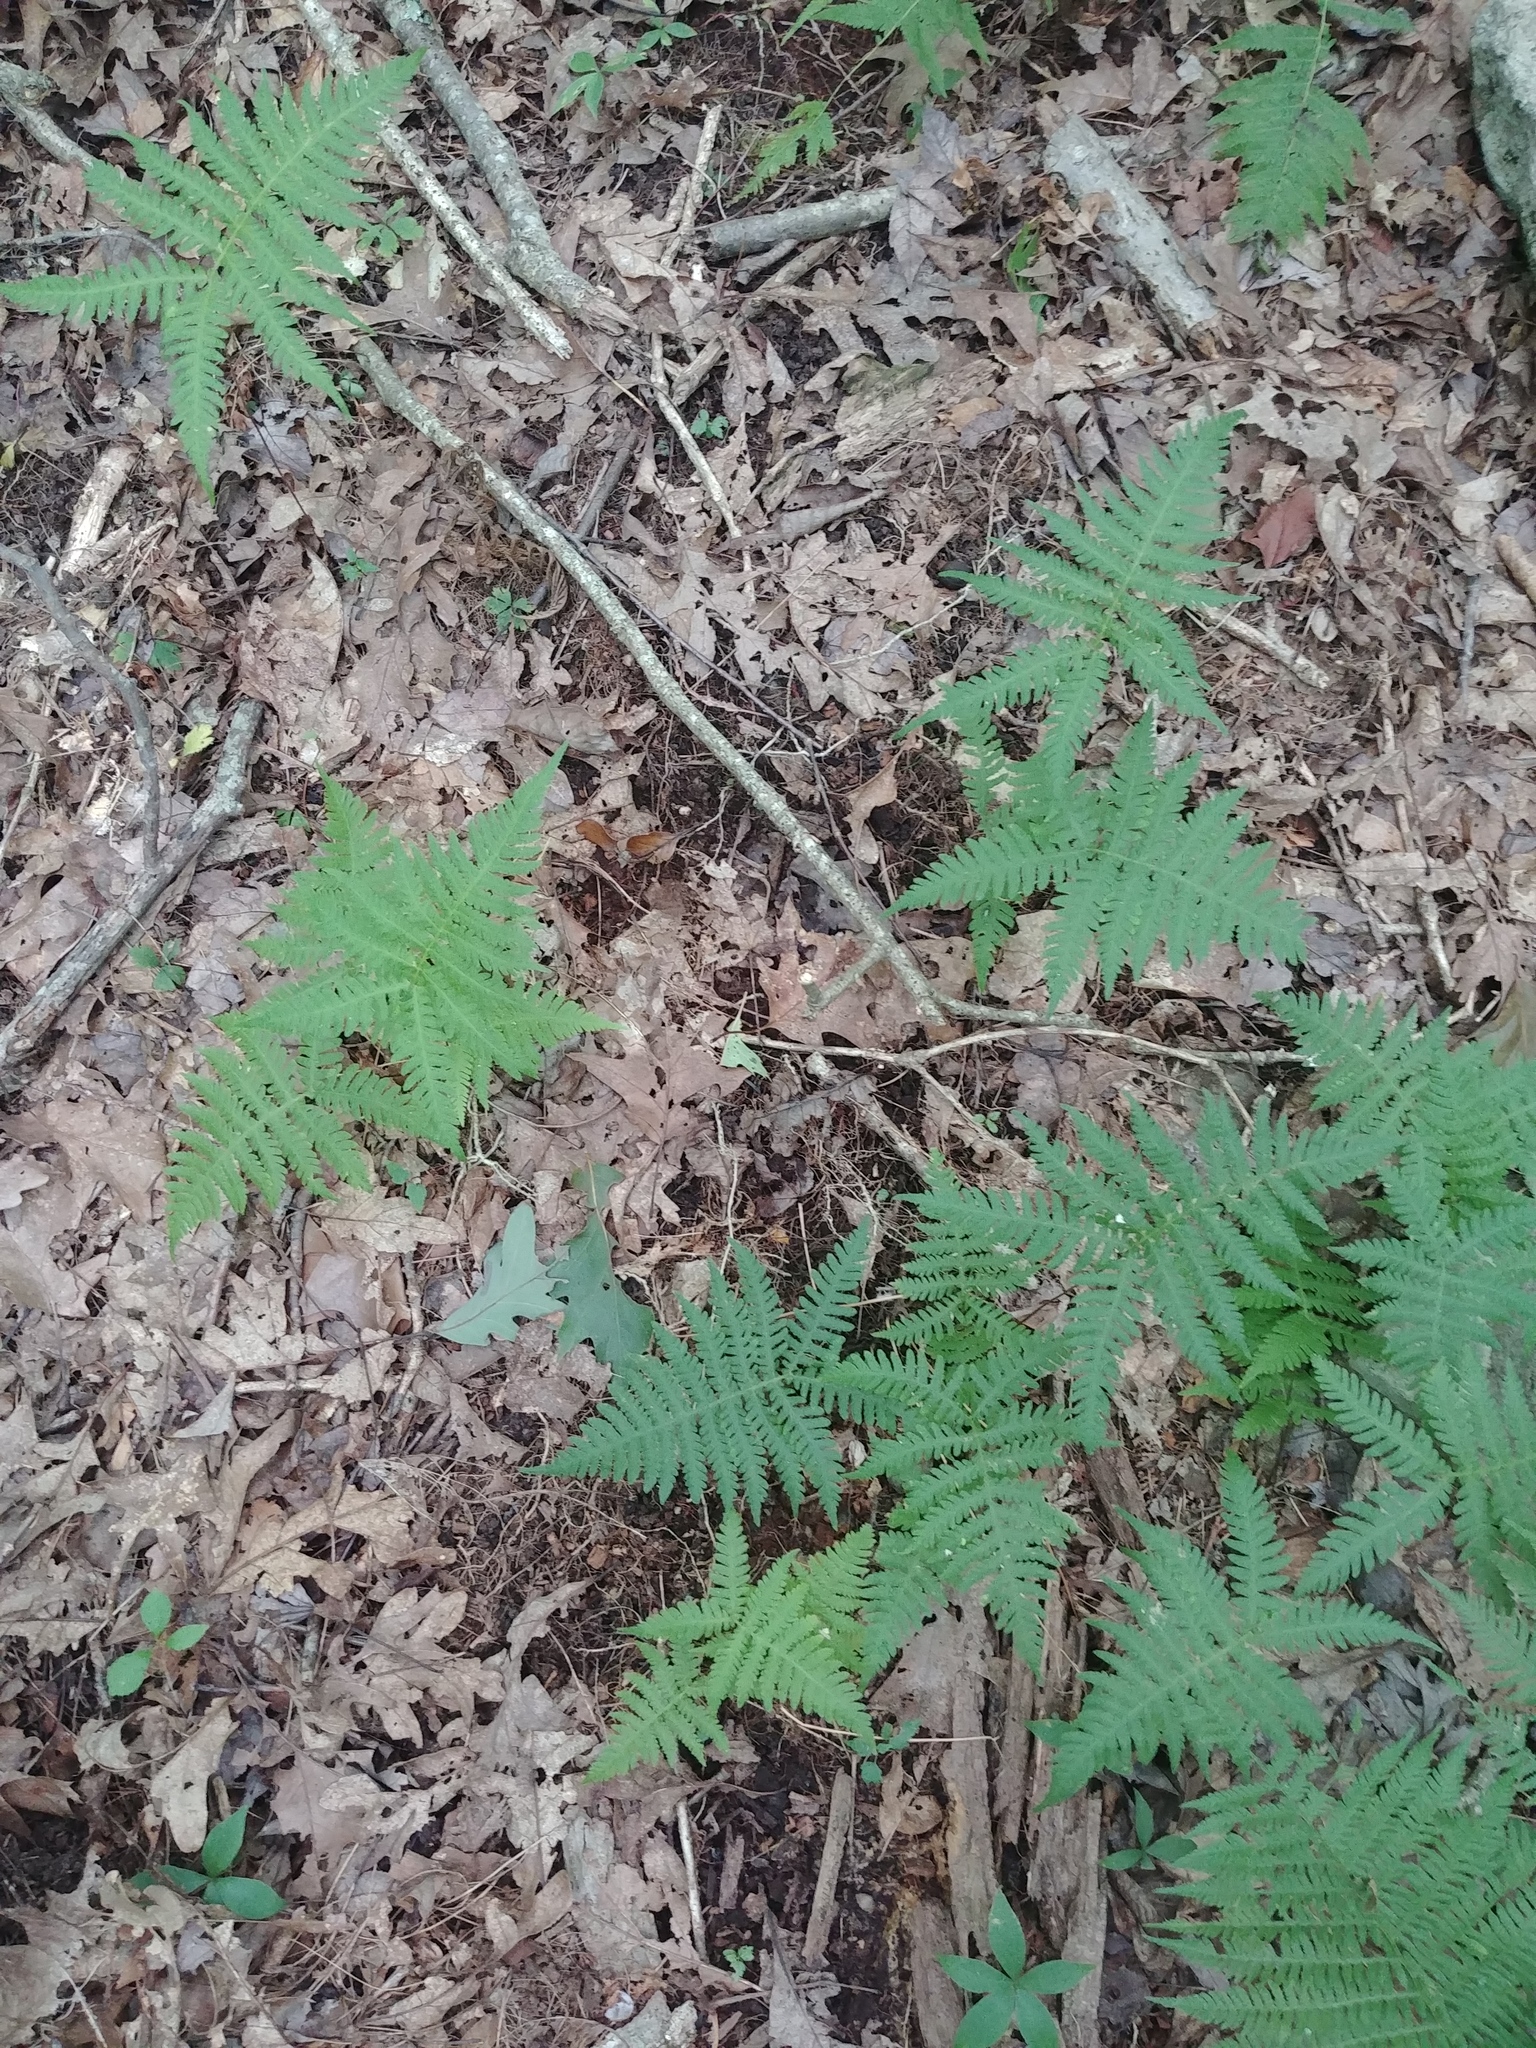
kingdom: Plantae
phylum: Tracheophyta
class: Polypodiopsida
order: Polypodiales
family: Thelypteridaceae
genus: Phegopteris
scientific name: Phegopteris hexagonoptera
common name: Broad beech fern
